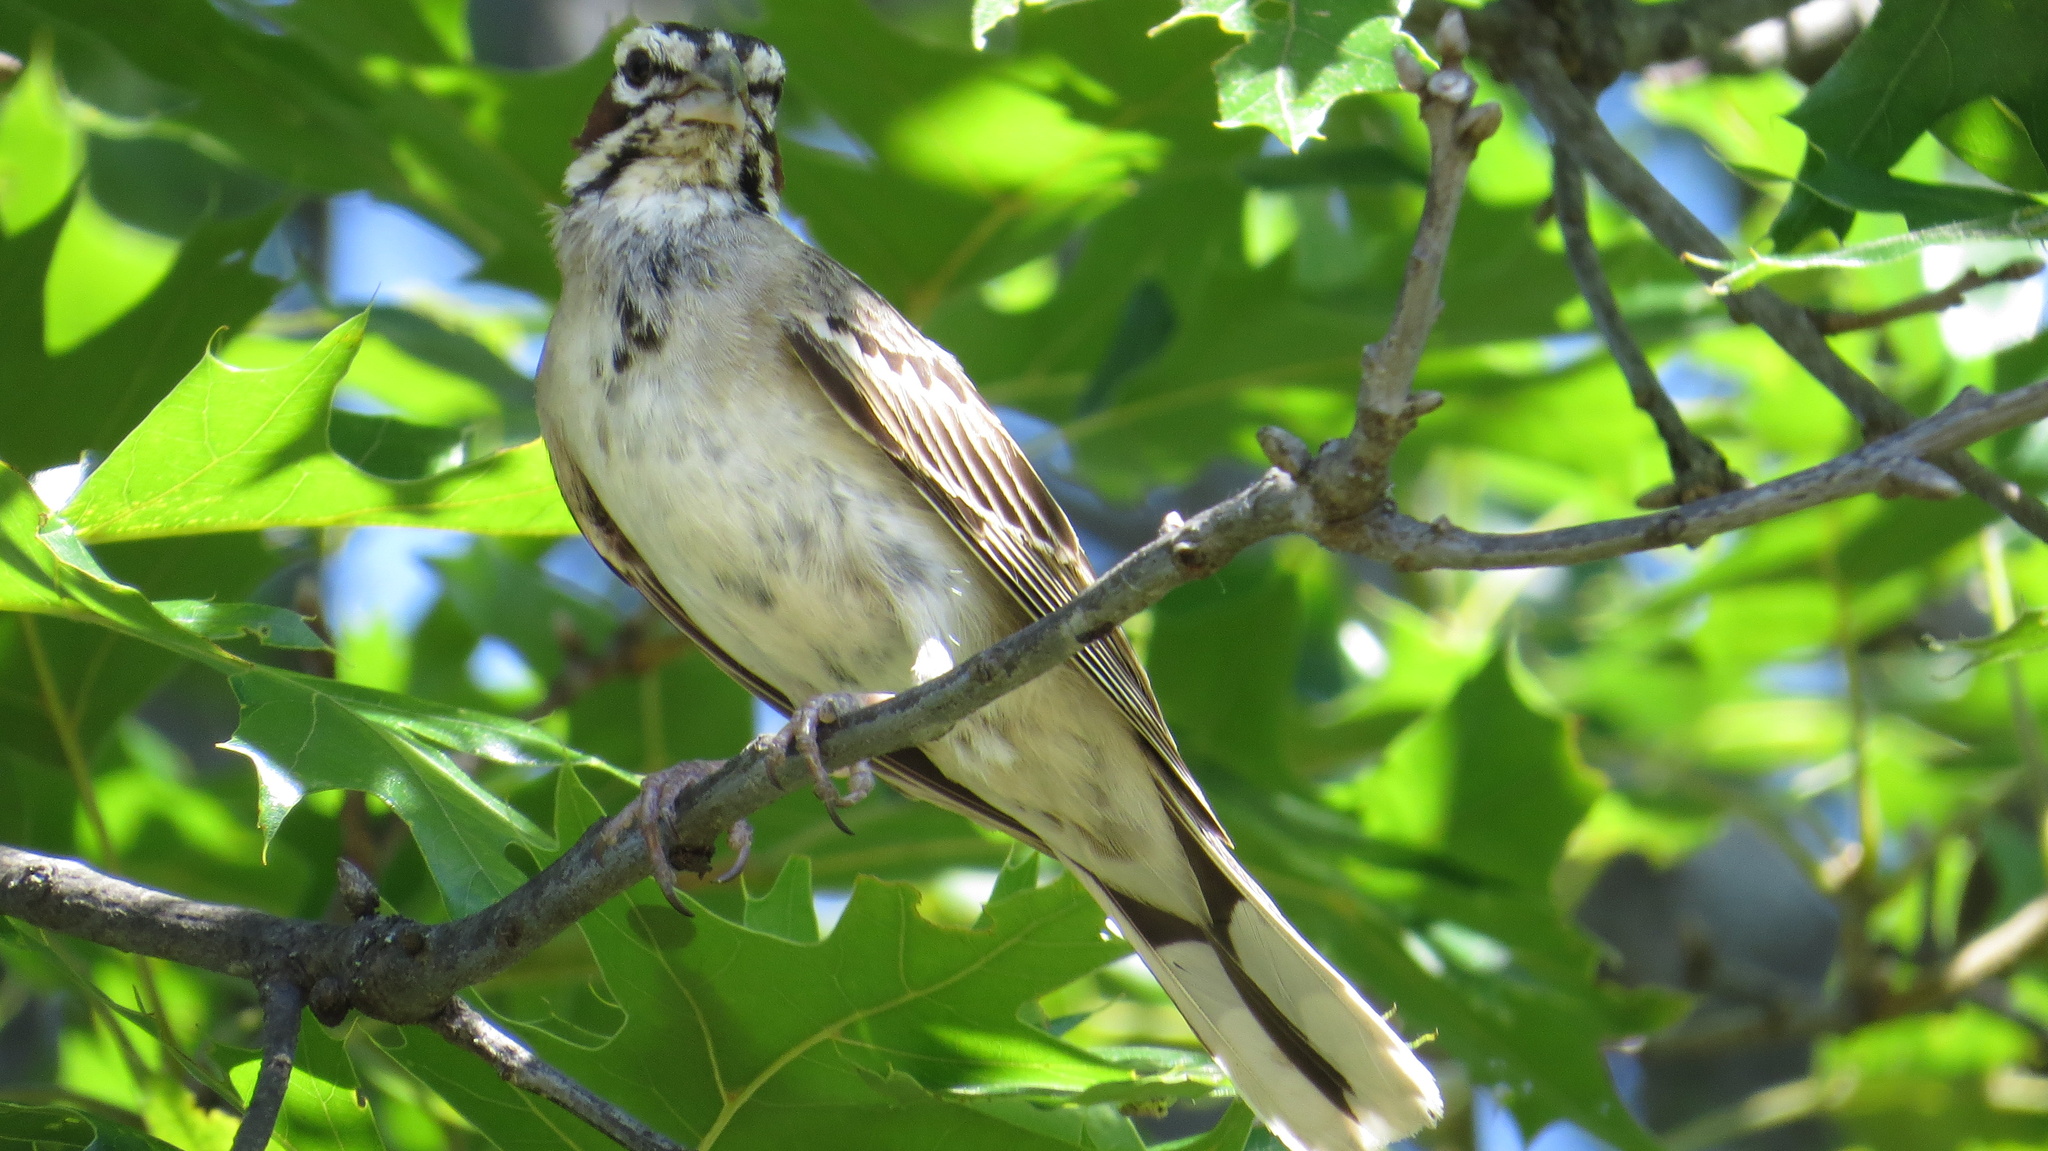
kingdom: Animalia
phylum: Chordata
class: Aves
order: Passeriformes
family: Passerellidae
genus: Chondestes
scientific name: Chondestes grammacus
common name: Lark sparrow
